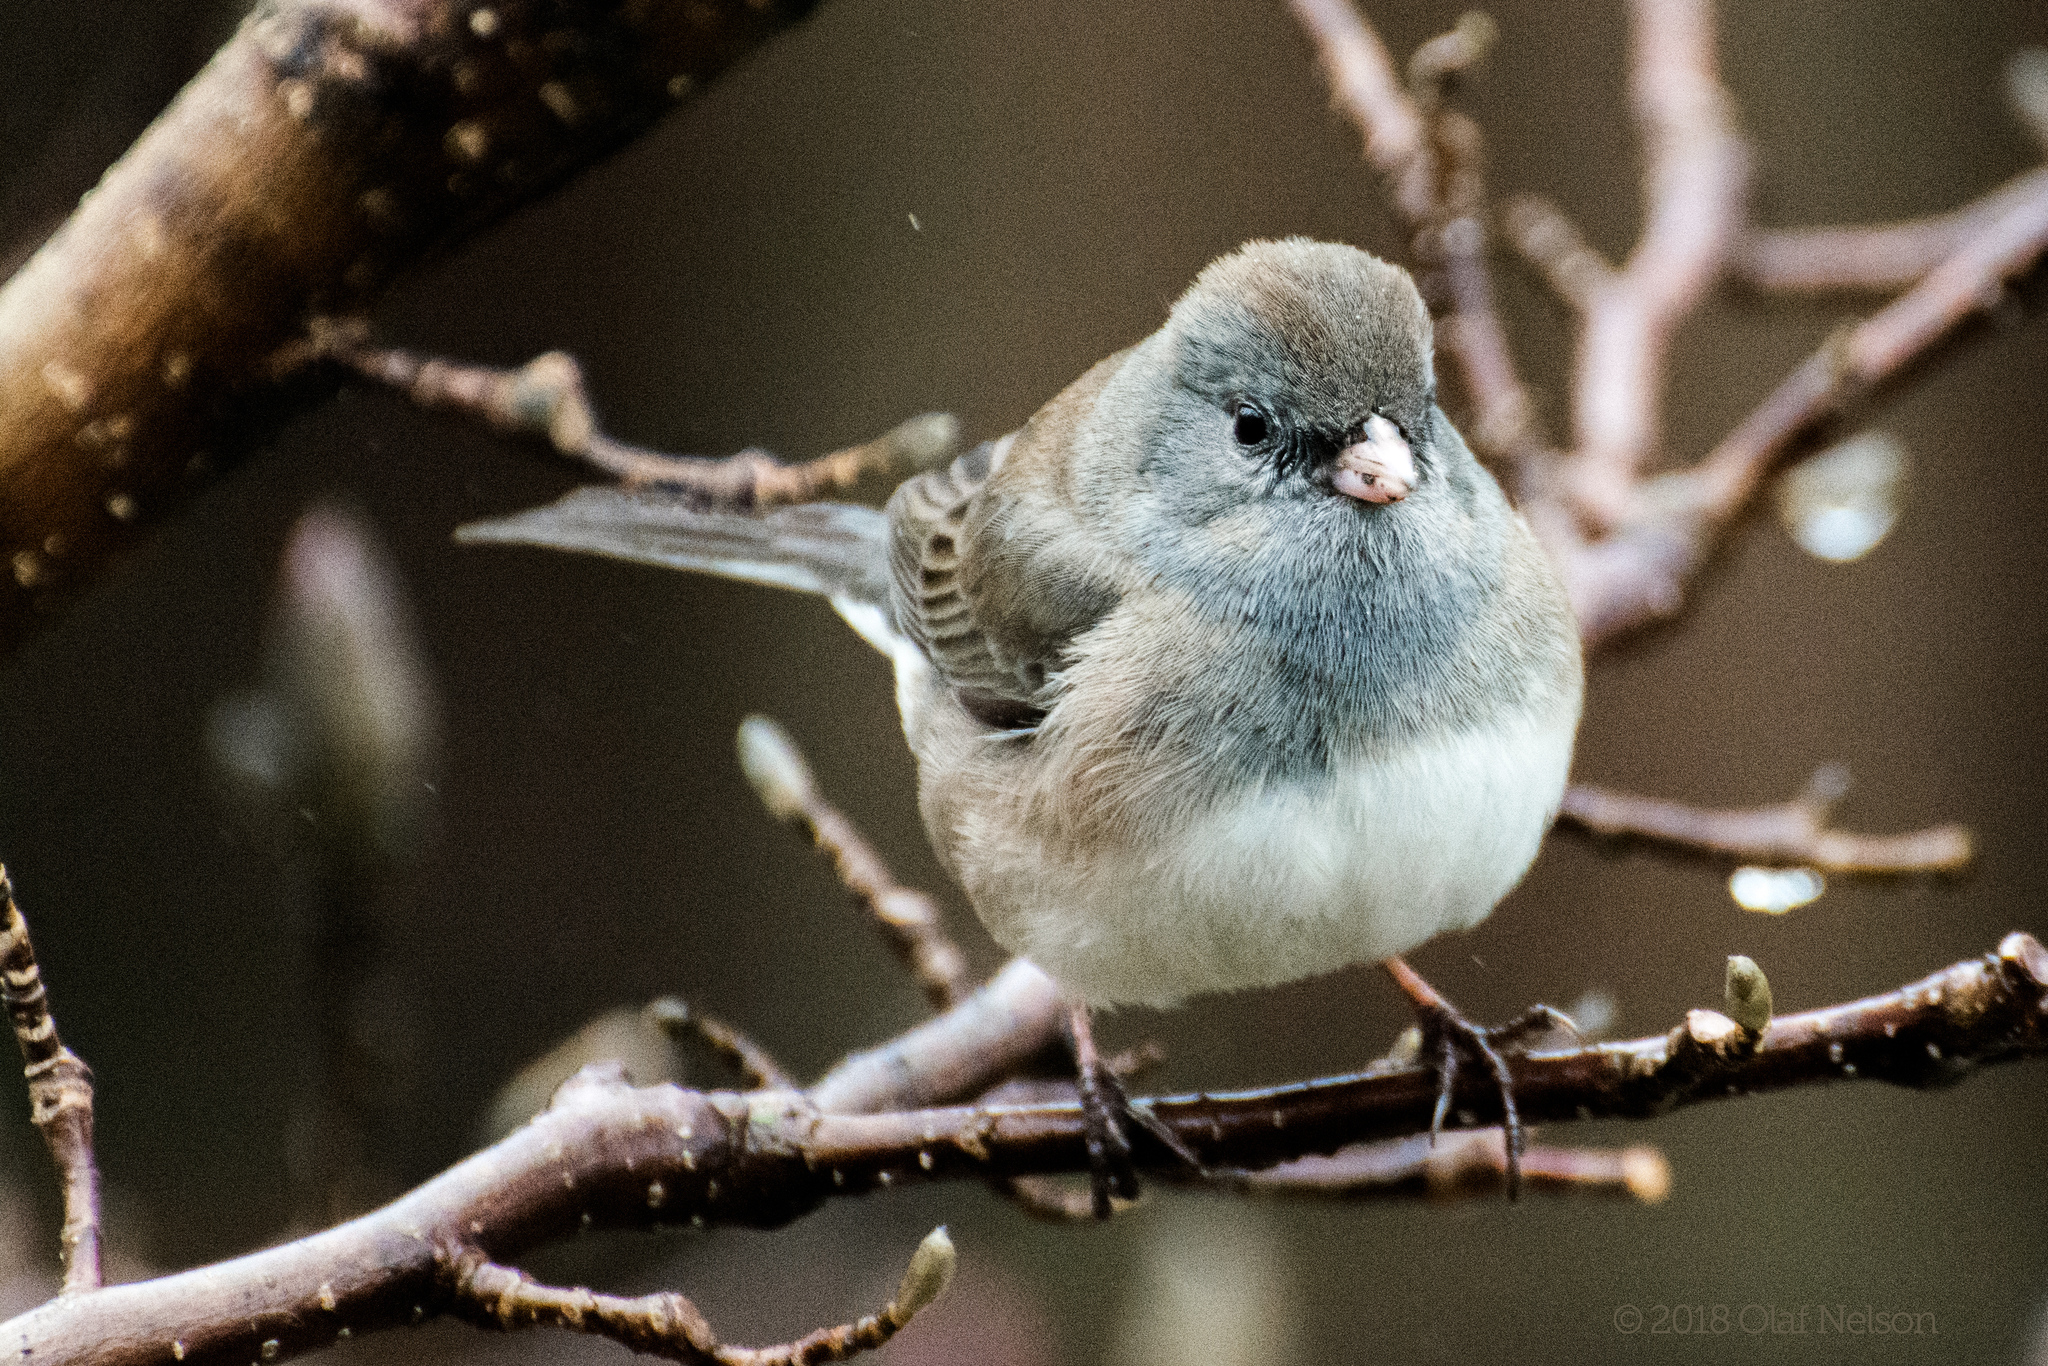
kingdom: Animalia
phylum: Chordata
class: Aves
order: Passeriformes
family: Passerellidae
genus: Junco
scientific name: Junco hyemalis
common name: Dark-eyed junco
